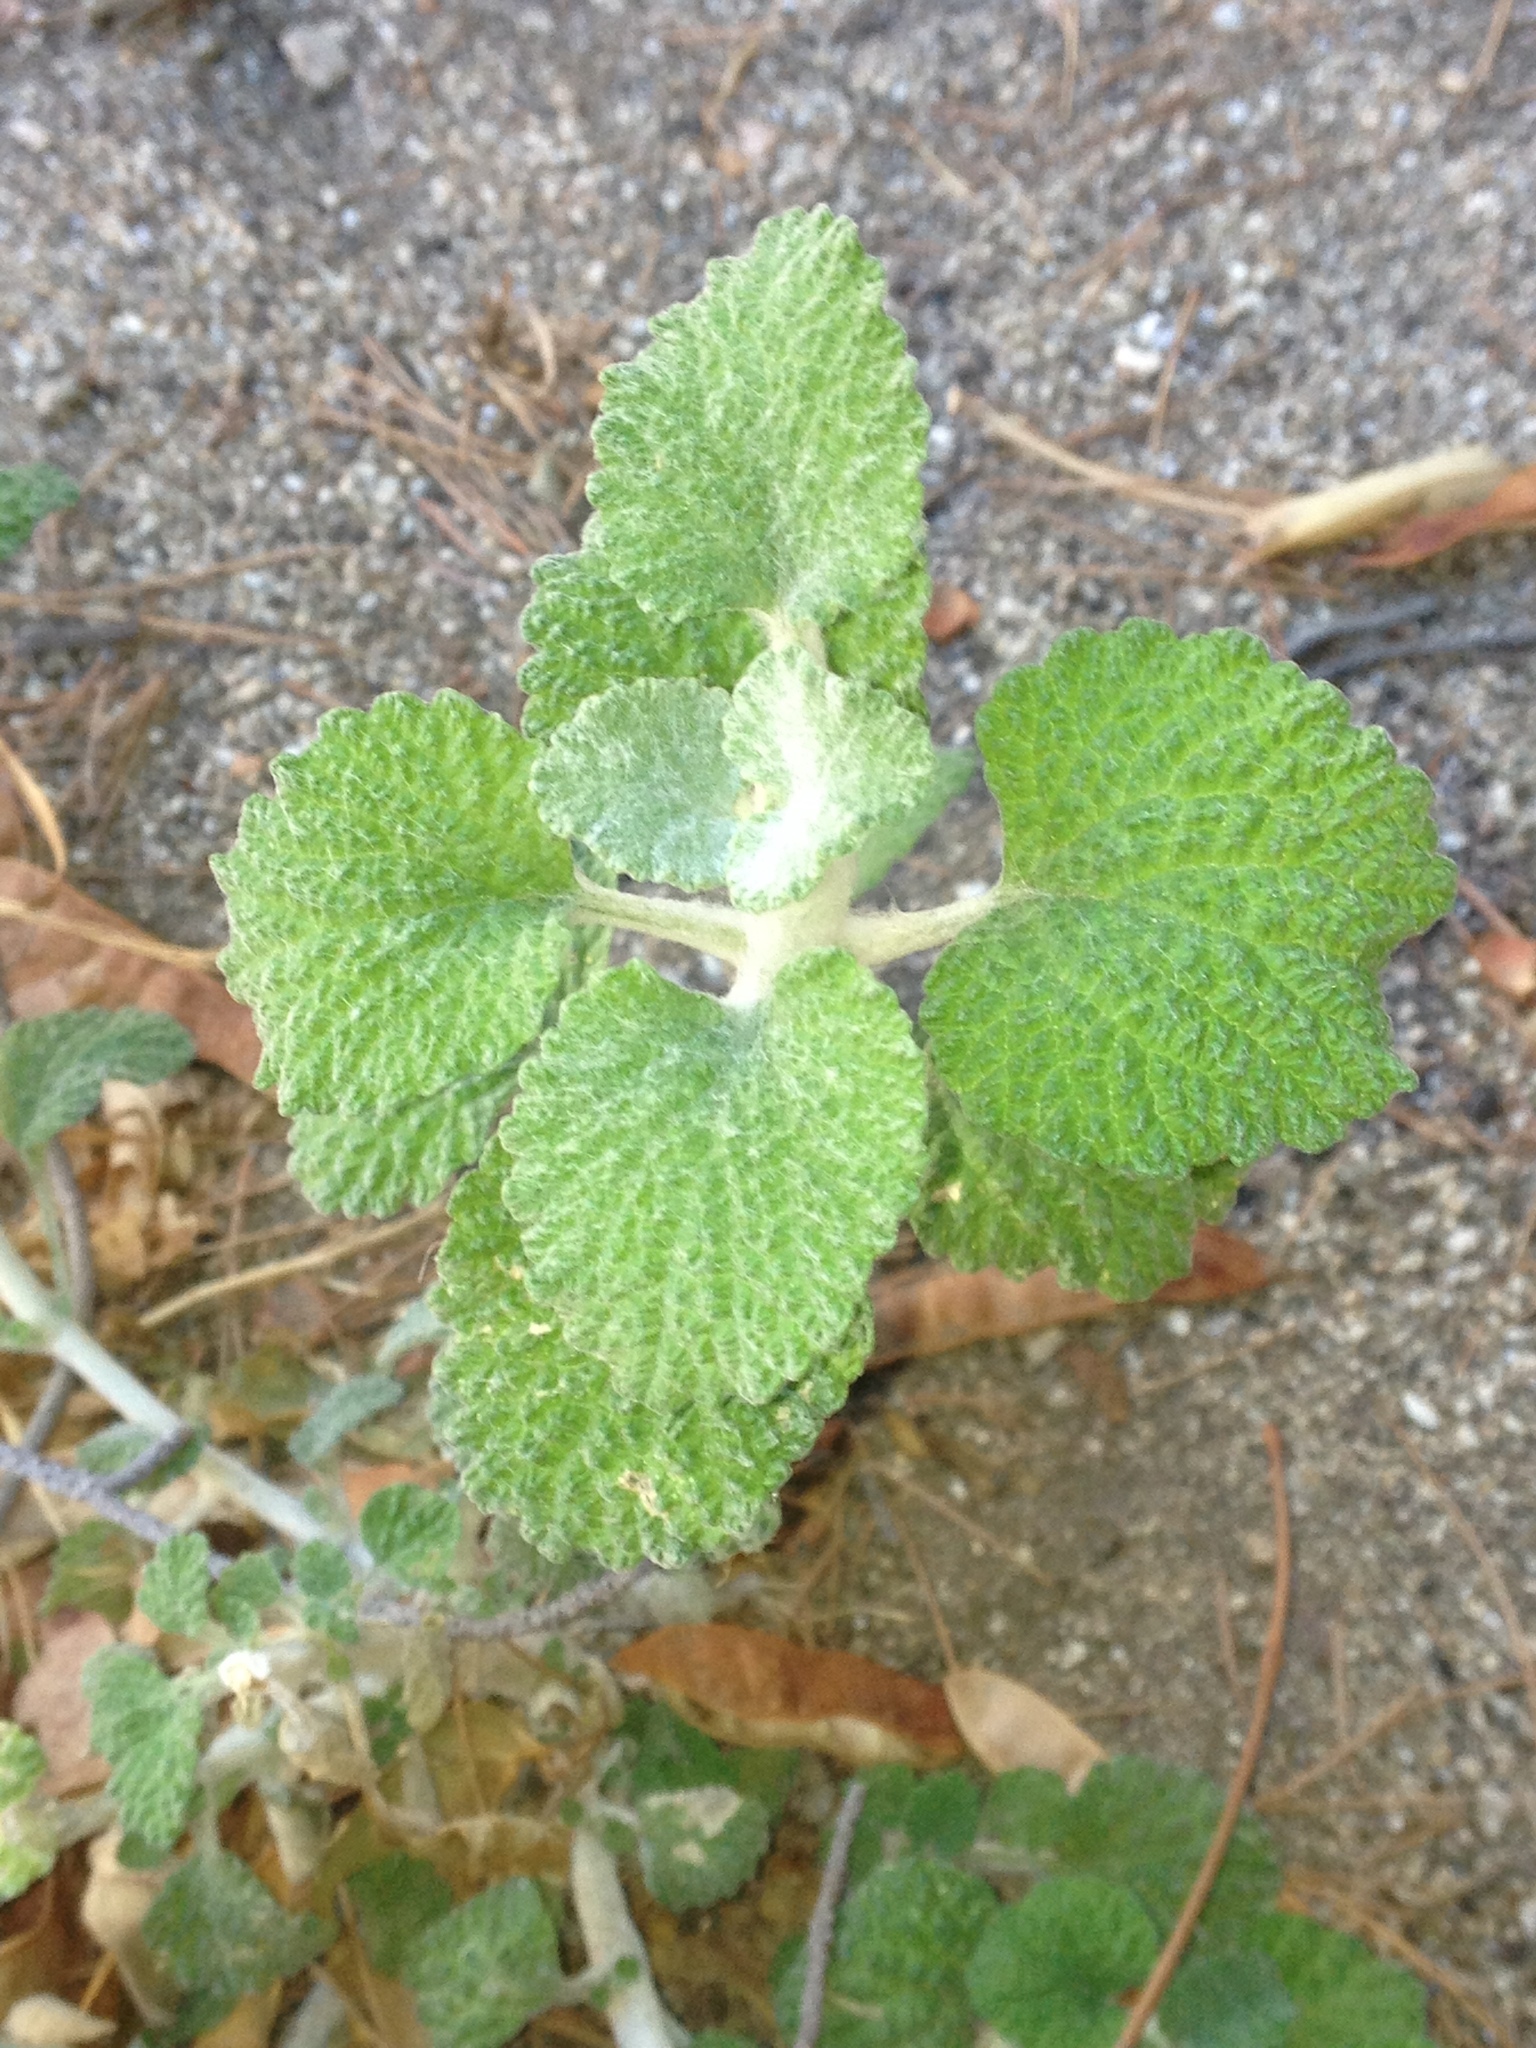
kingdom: Plantae
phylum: Tracheophyta
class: Magnoliopsida
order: Lamiales
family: Lamiaceae
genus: Marrubium
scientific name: Marrubium vulgare
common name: Horehound
